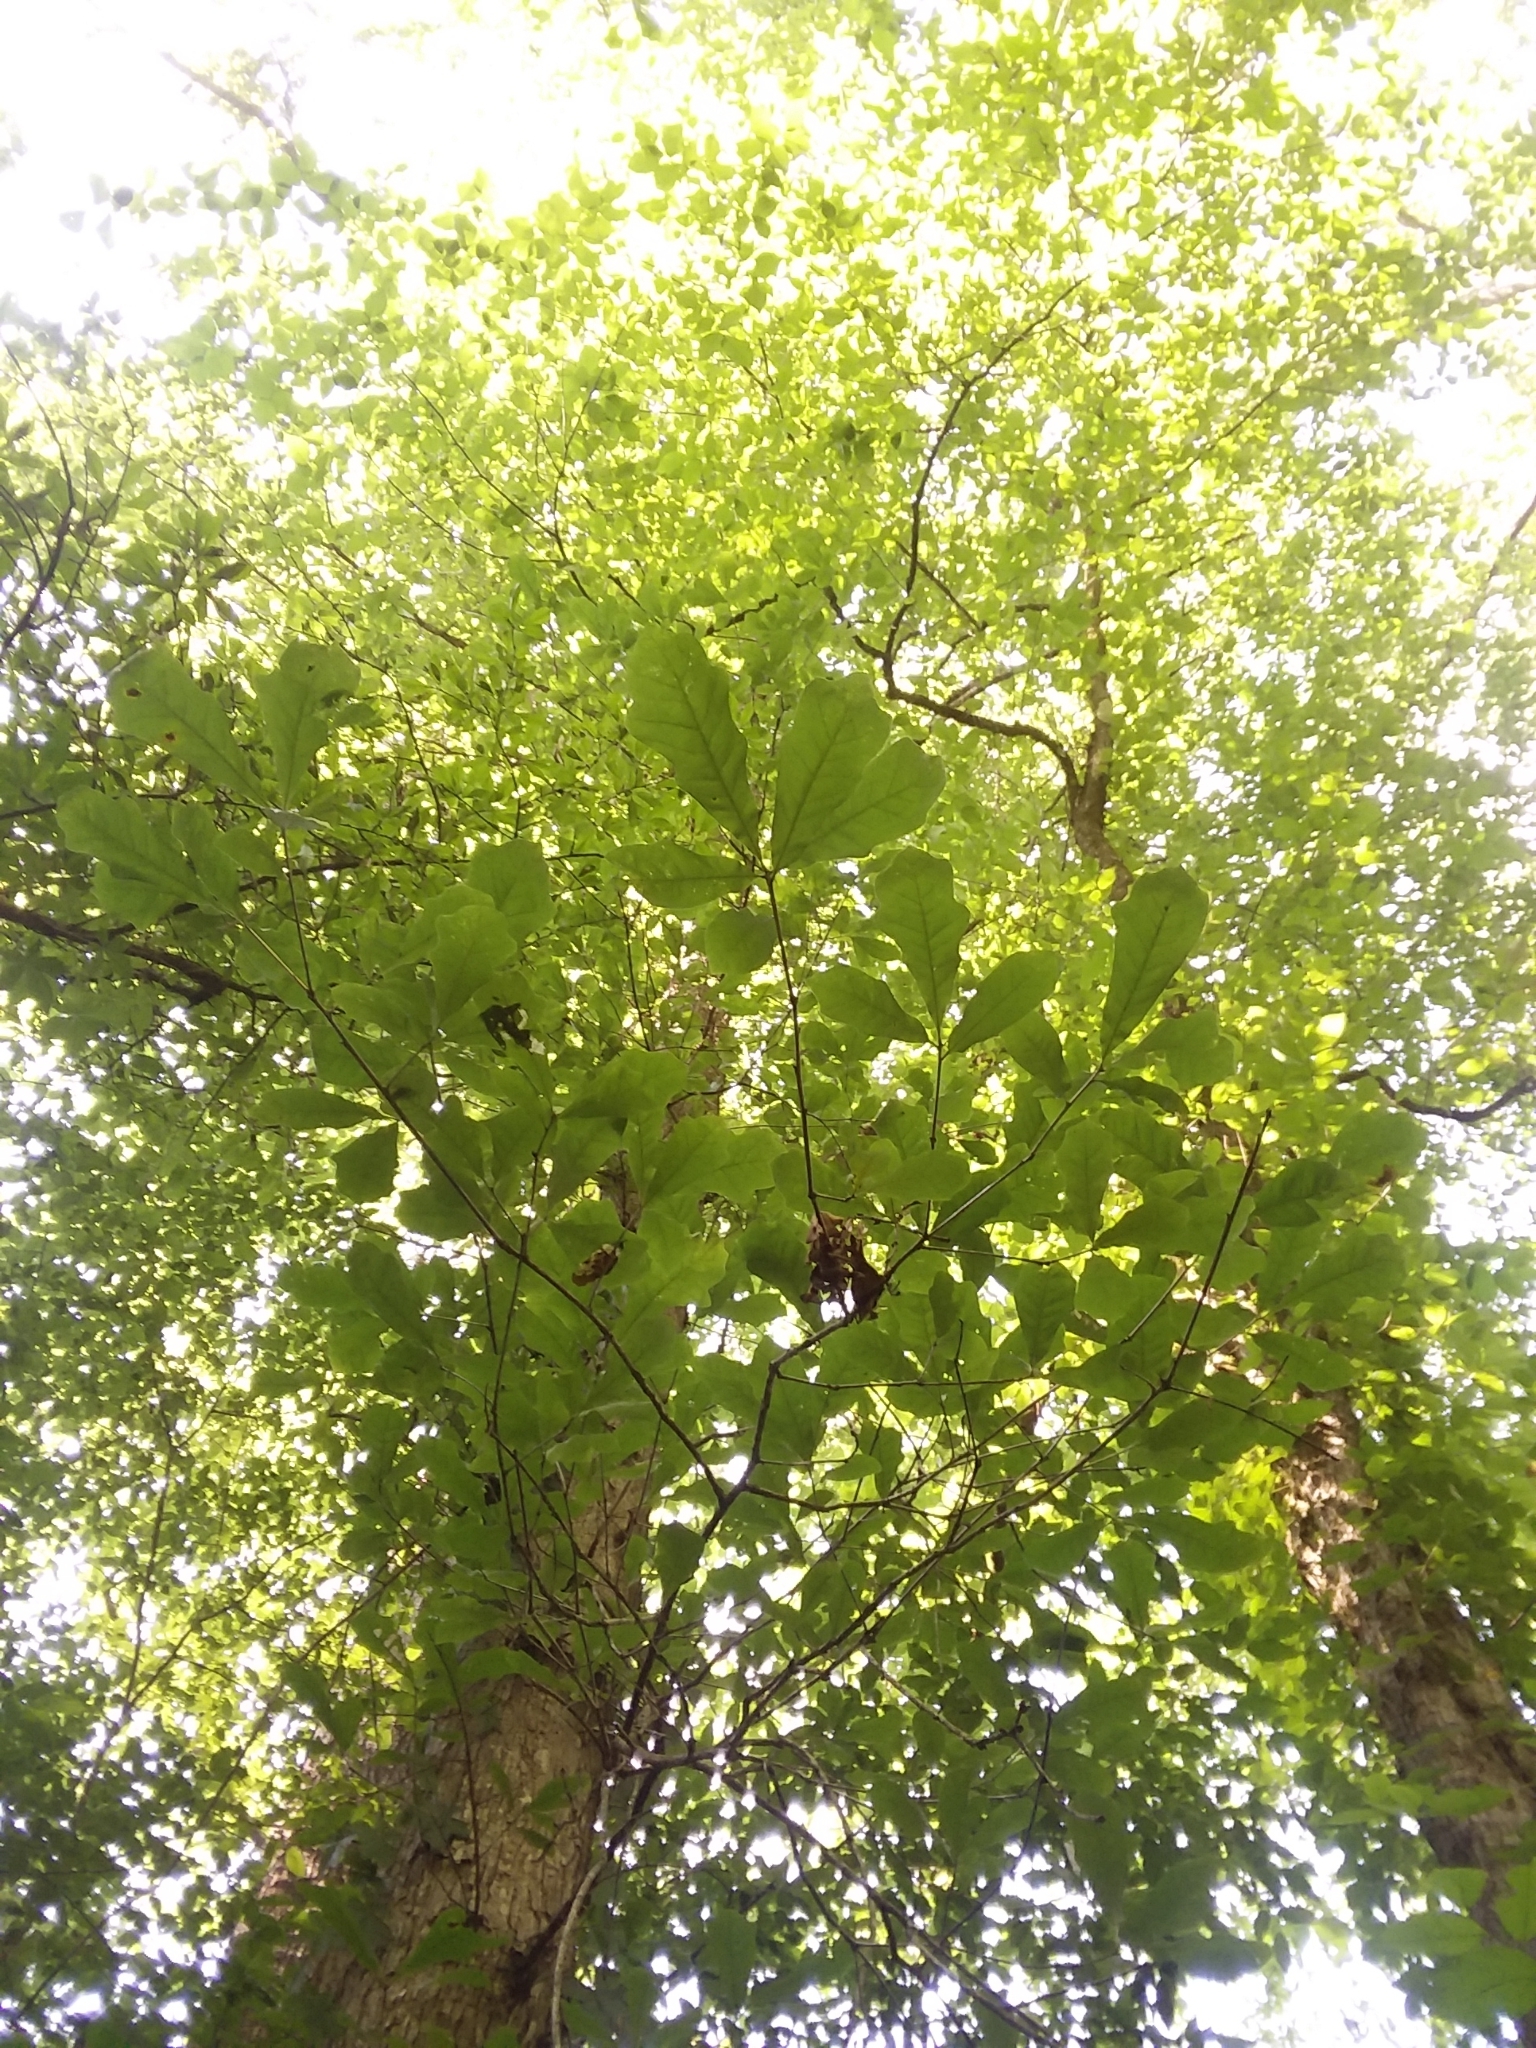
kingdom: Plantae
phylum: Tracheophyta
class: Magnoliopsida
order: Fagales
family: Fagaceae
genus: Quercus
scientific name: Quercus austrina
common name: Bastard white oak
